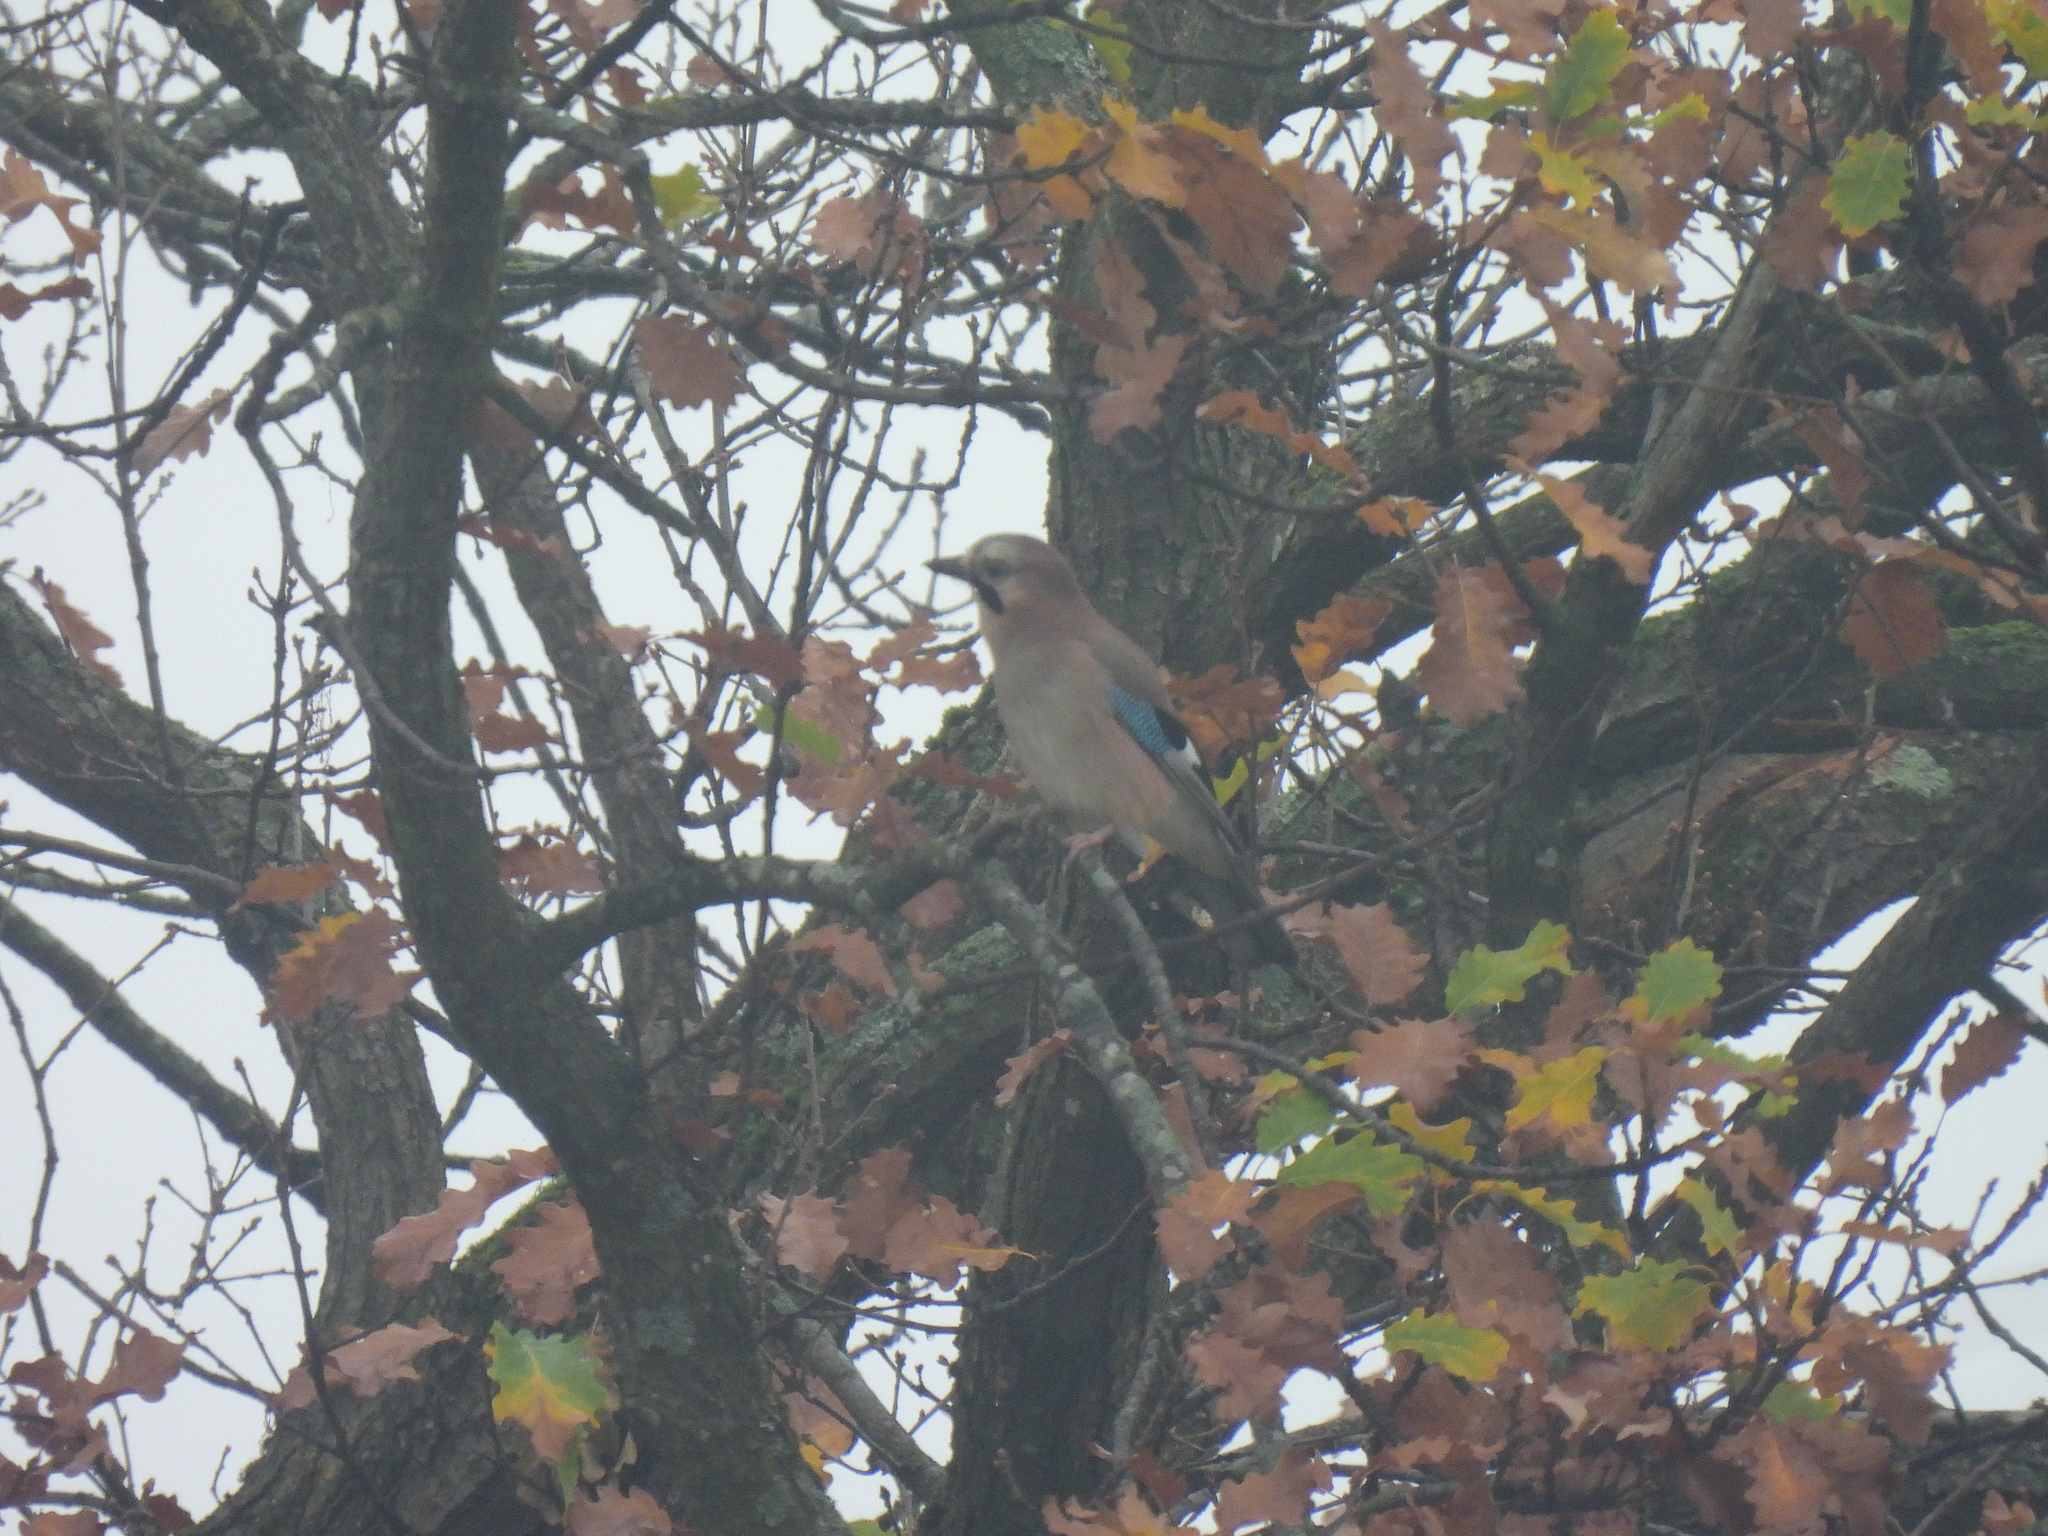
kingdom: Animalia
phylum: Chordata
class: Aves
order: Passeriformes
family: Corvidae
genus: Garrulus
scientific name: Garrulus glandarius
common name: Eurasian jay
